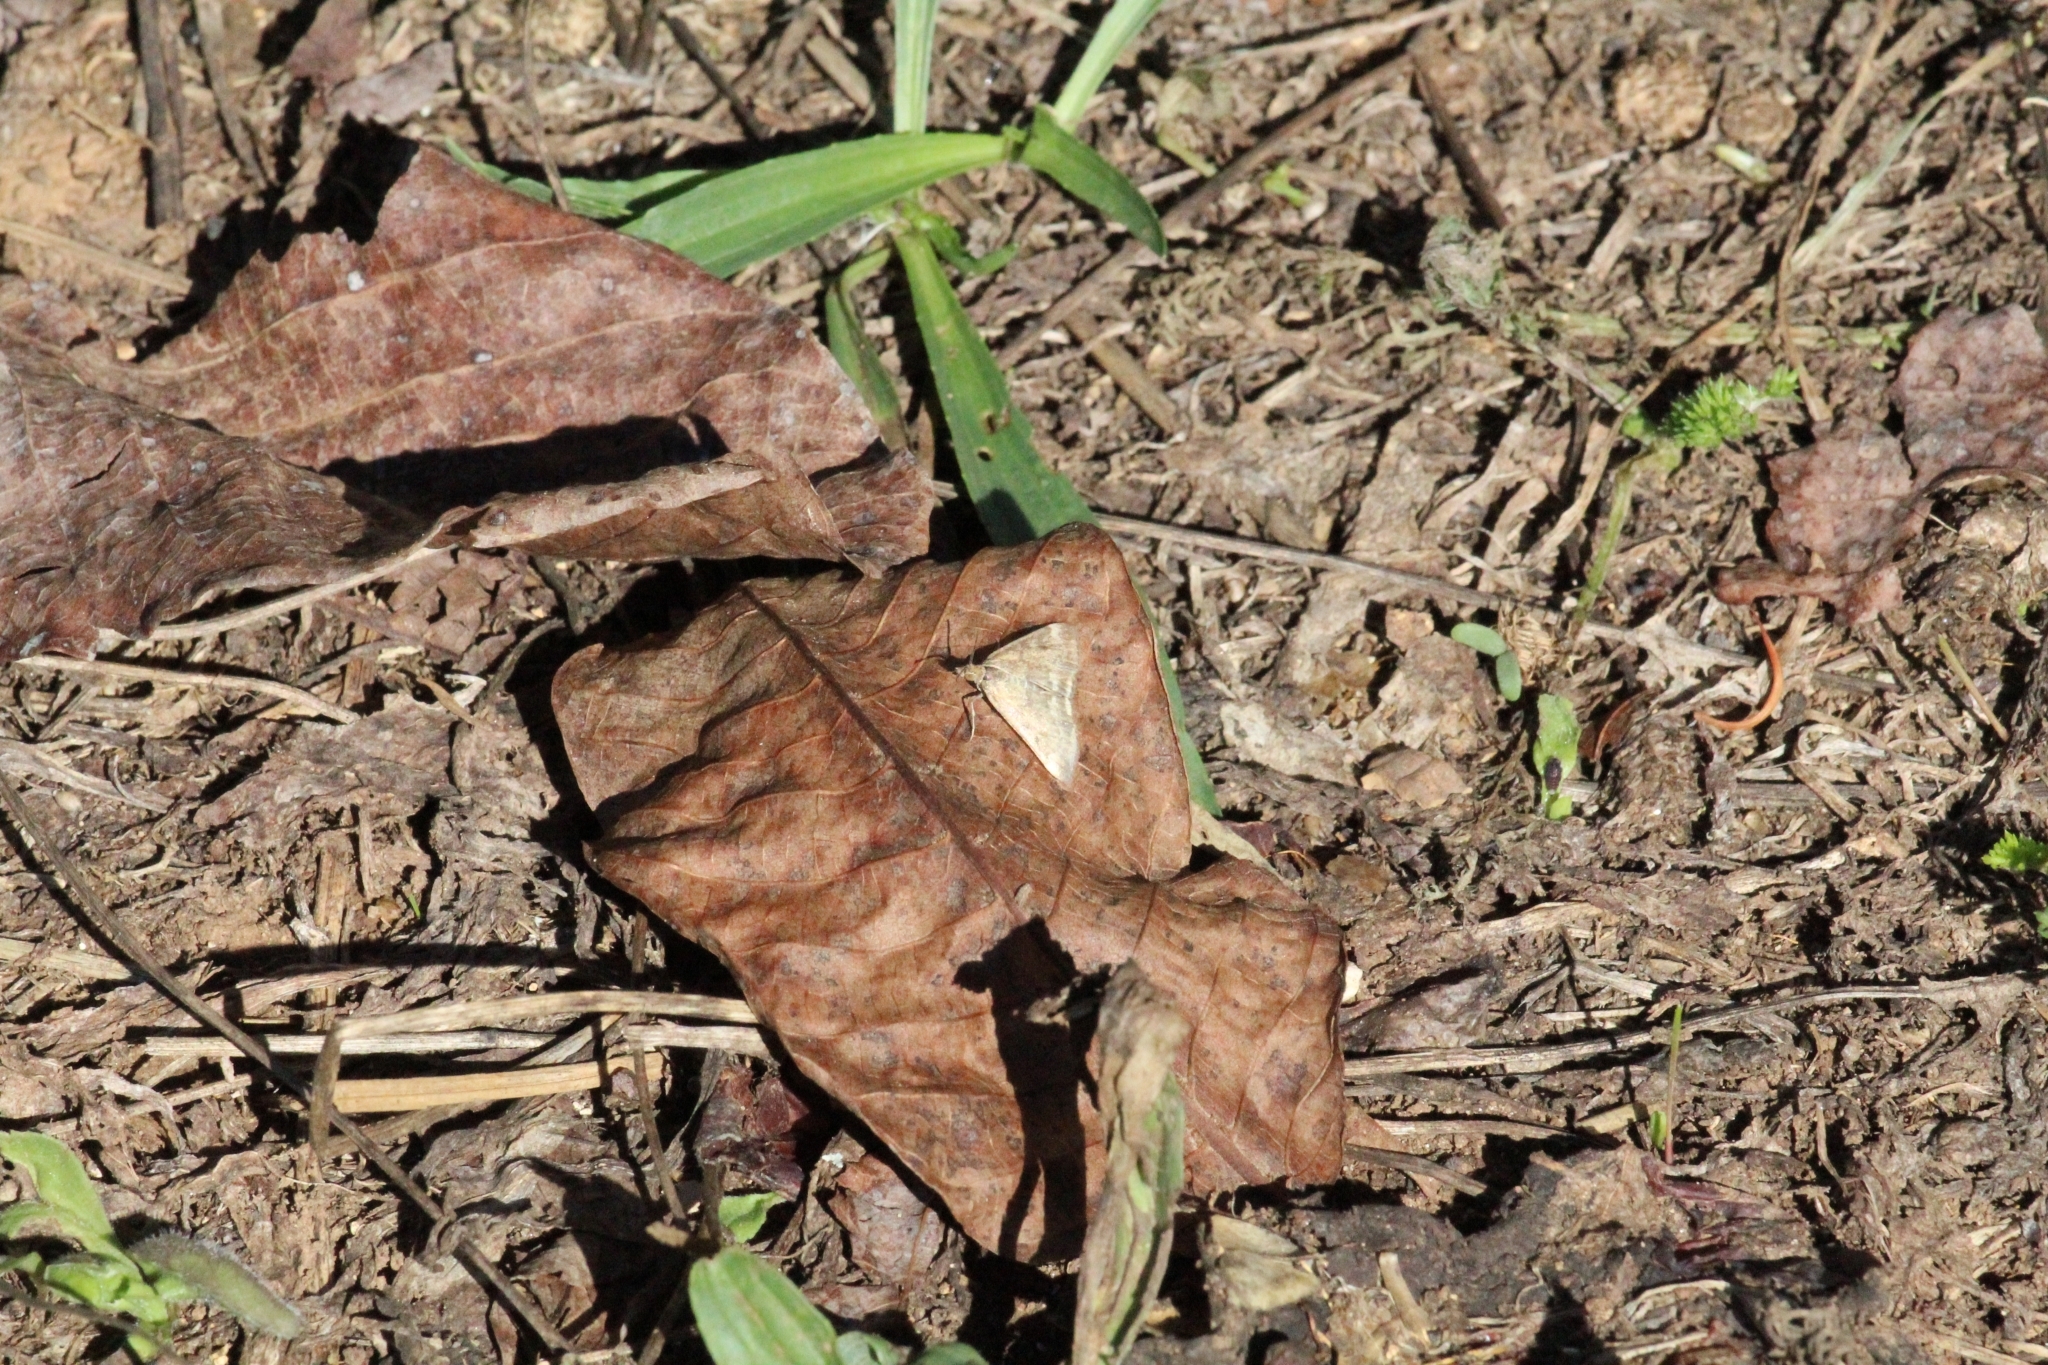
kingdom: Animalia
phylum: Arthropoda
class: Insecta
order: Lepidoptera
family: Crambidae
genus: Pyrausta
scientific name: Pyrausta despicata
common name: Straw-barred pearl
